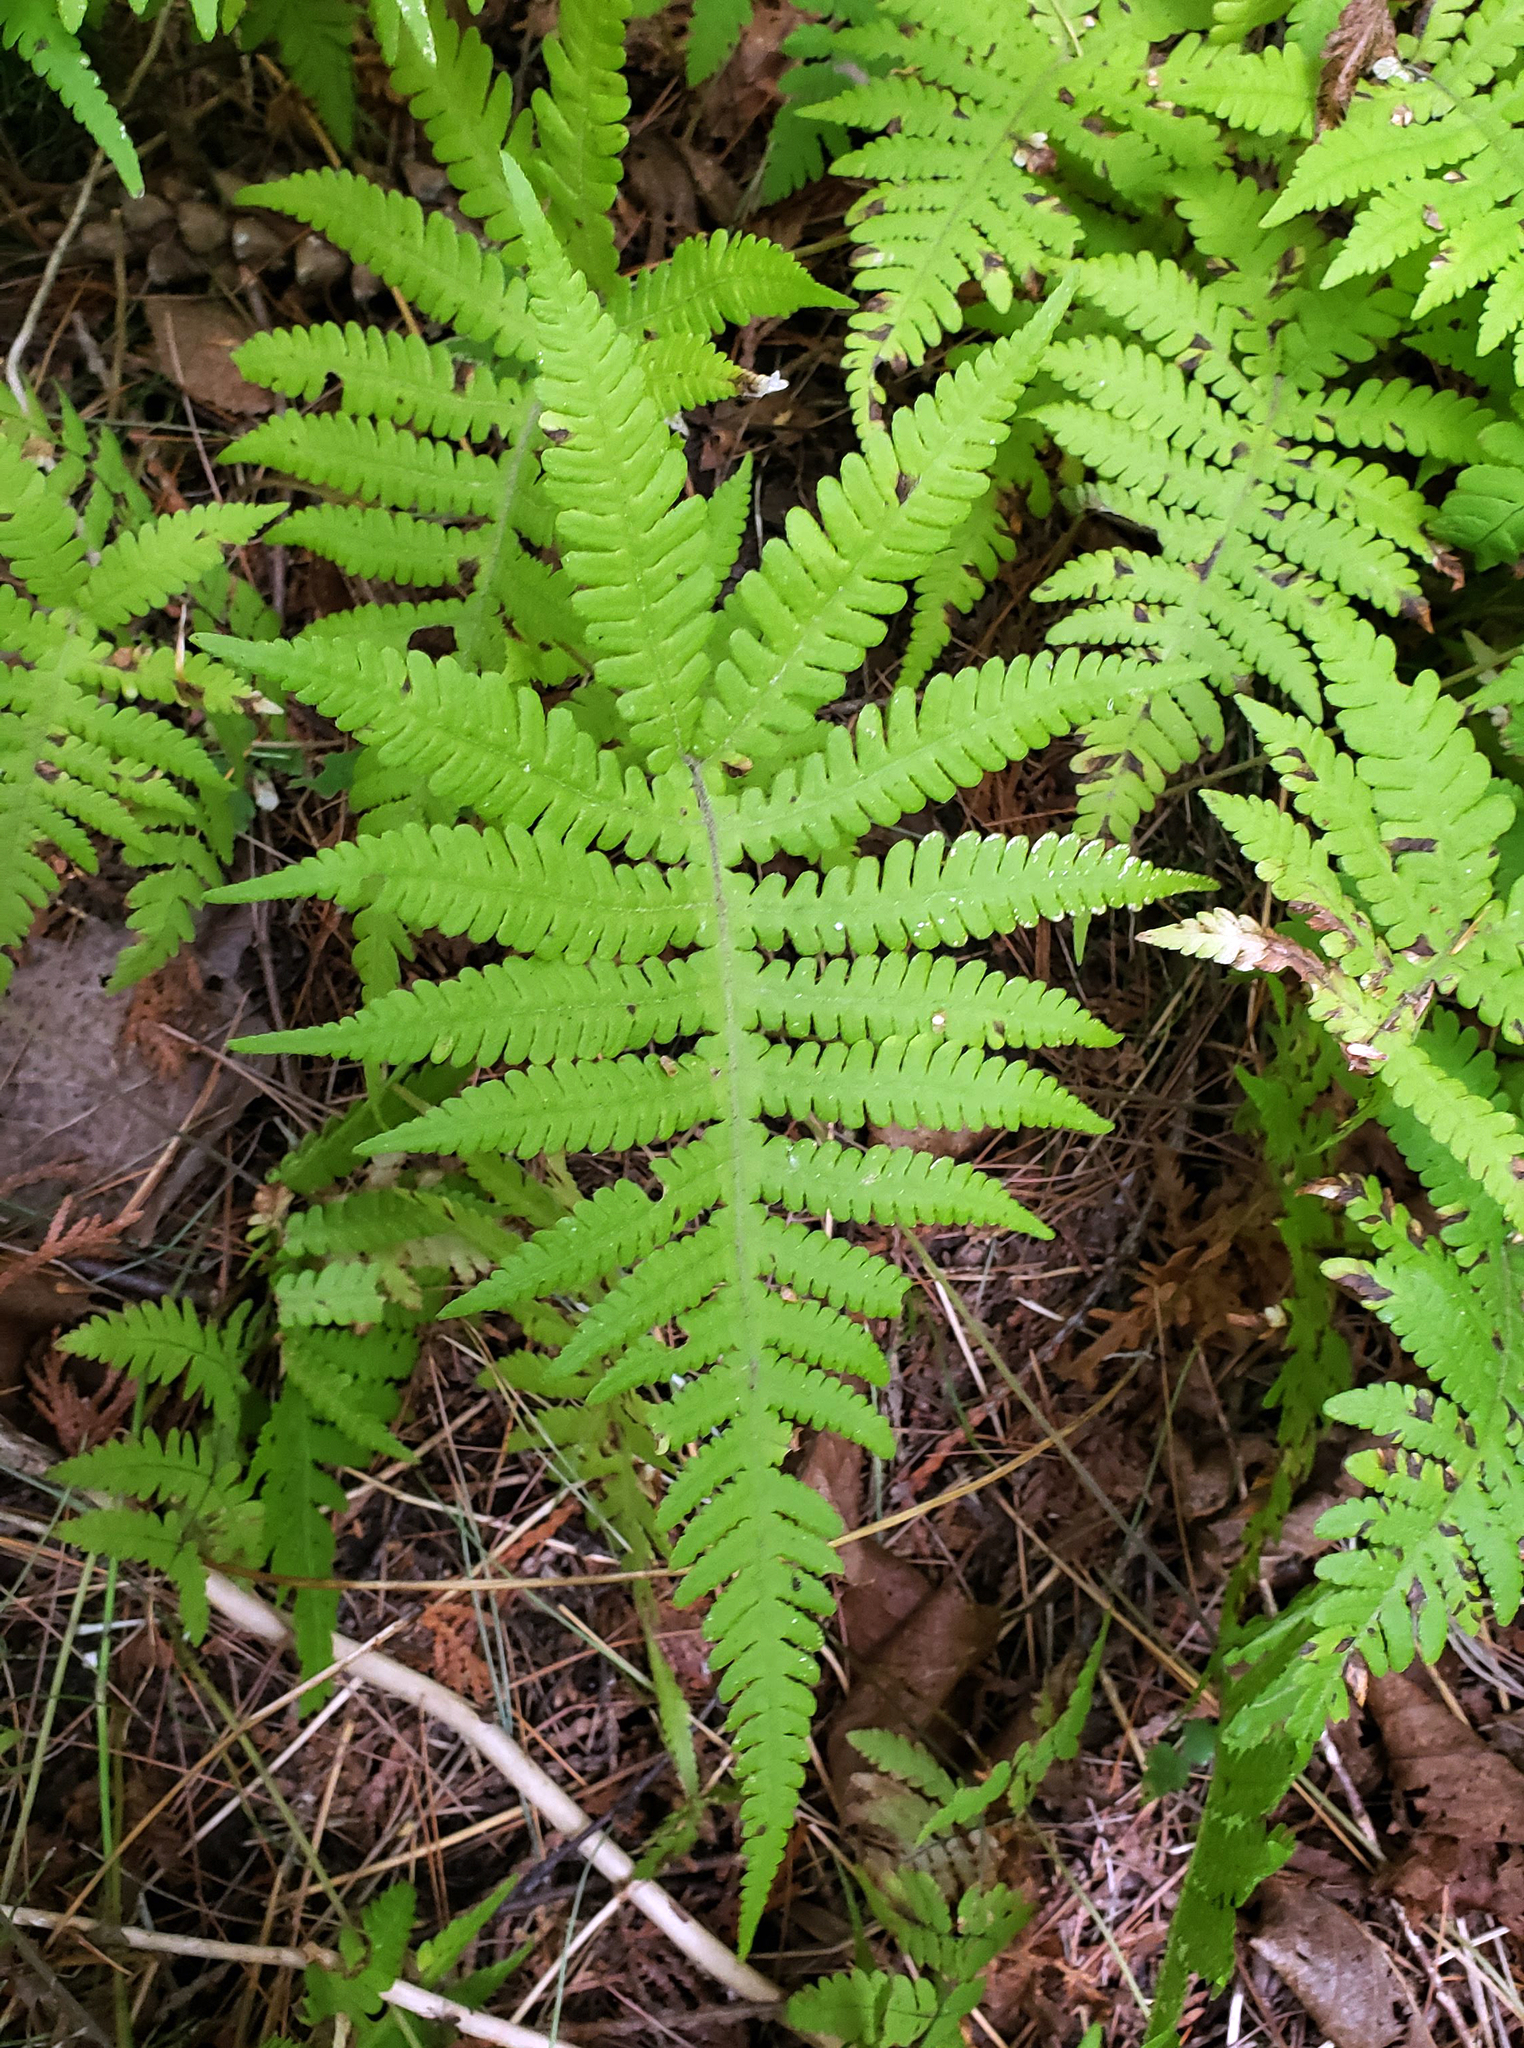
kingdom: Plantae
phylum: Tracheophyta
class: Polypodiopsida
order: Polypodiales
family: Thelypteridaceae
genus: Phegopteris
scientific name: Phegopteris connectilis
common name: Beech fern
